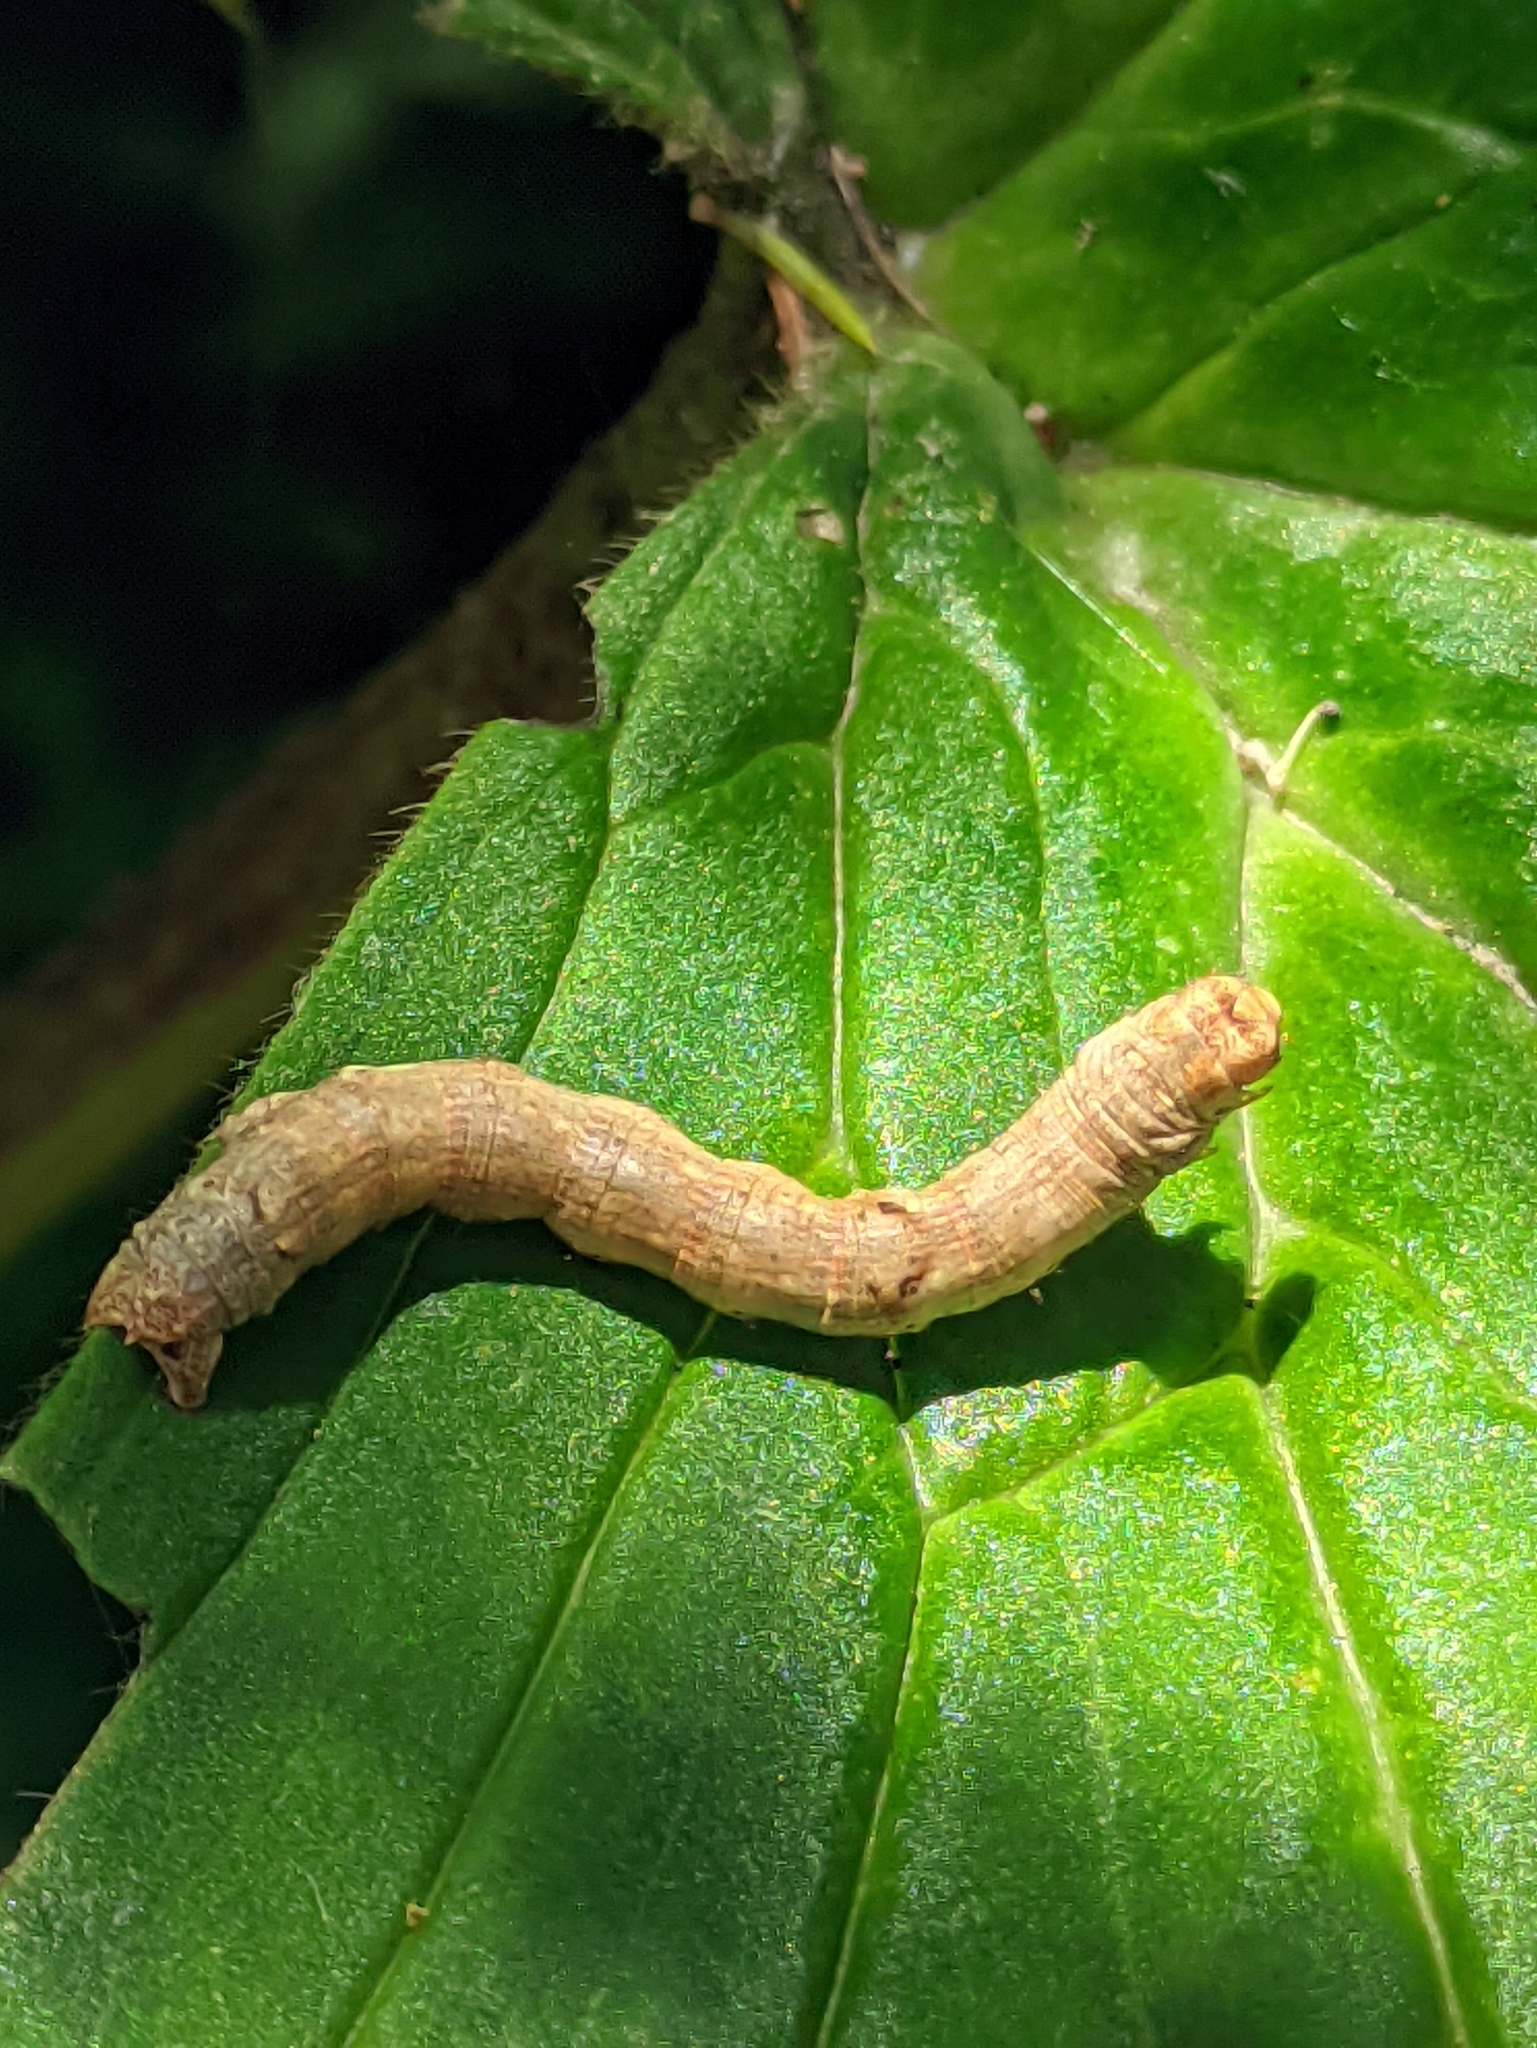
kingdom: Animalia
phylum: Arthropoda
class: Insecta
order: Lepidoptera
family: Geometridae
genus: Ectropis
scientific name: Ectropis crepuscularia
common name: Engrailed
